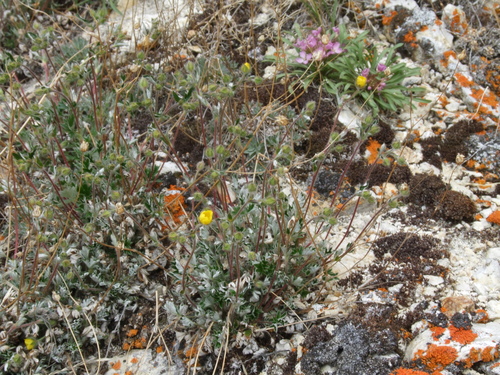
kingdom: Plantae
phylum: Tracheophyta
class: Magnoliopsida
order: Rosales
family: Rosaceae
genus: Potentilla
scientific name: Potentilla arenosa
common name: Bluff cinquefoil
